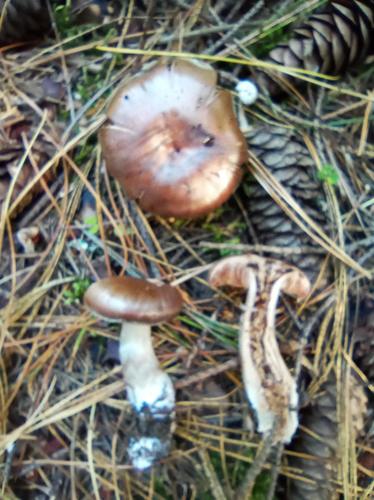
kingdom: Fungi
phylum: Basidiomycota
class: Agaricomycetes
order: Agaricales
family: Cortinariaceae
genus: Cortinarius
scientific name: Cortinarius
